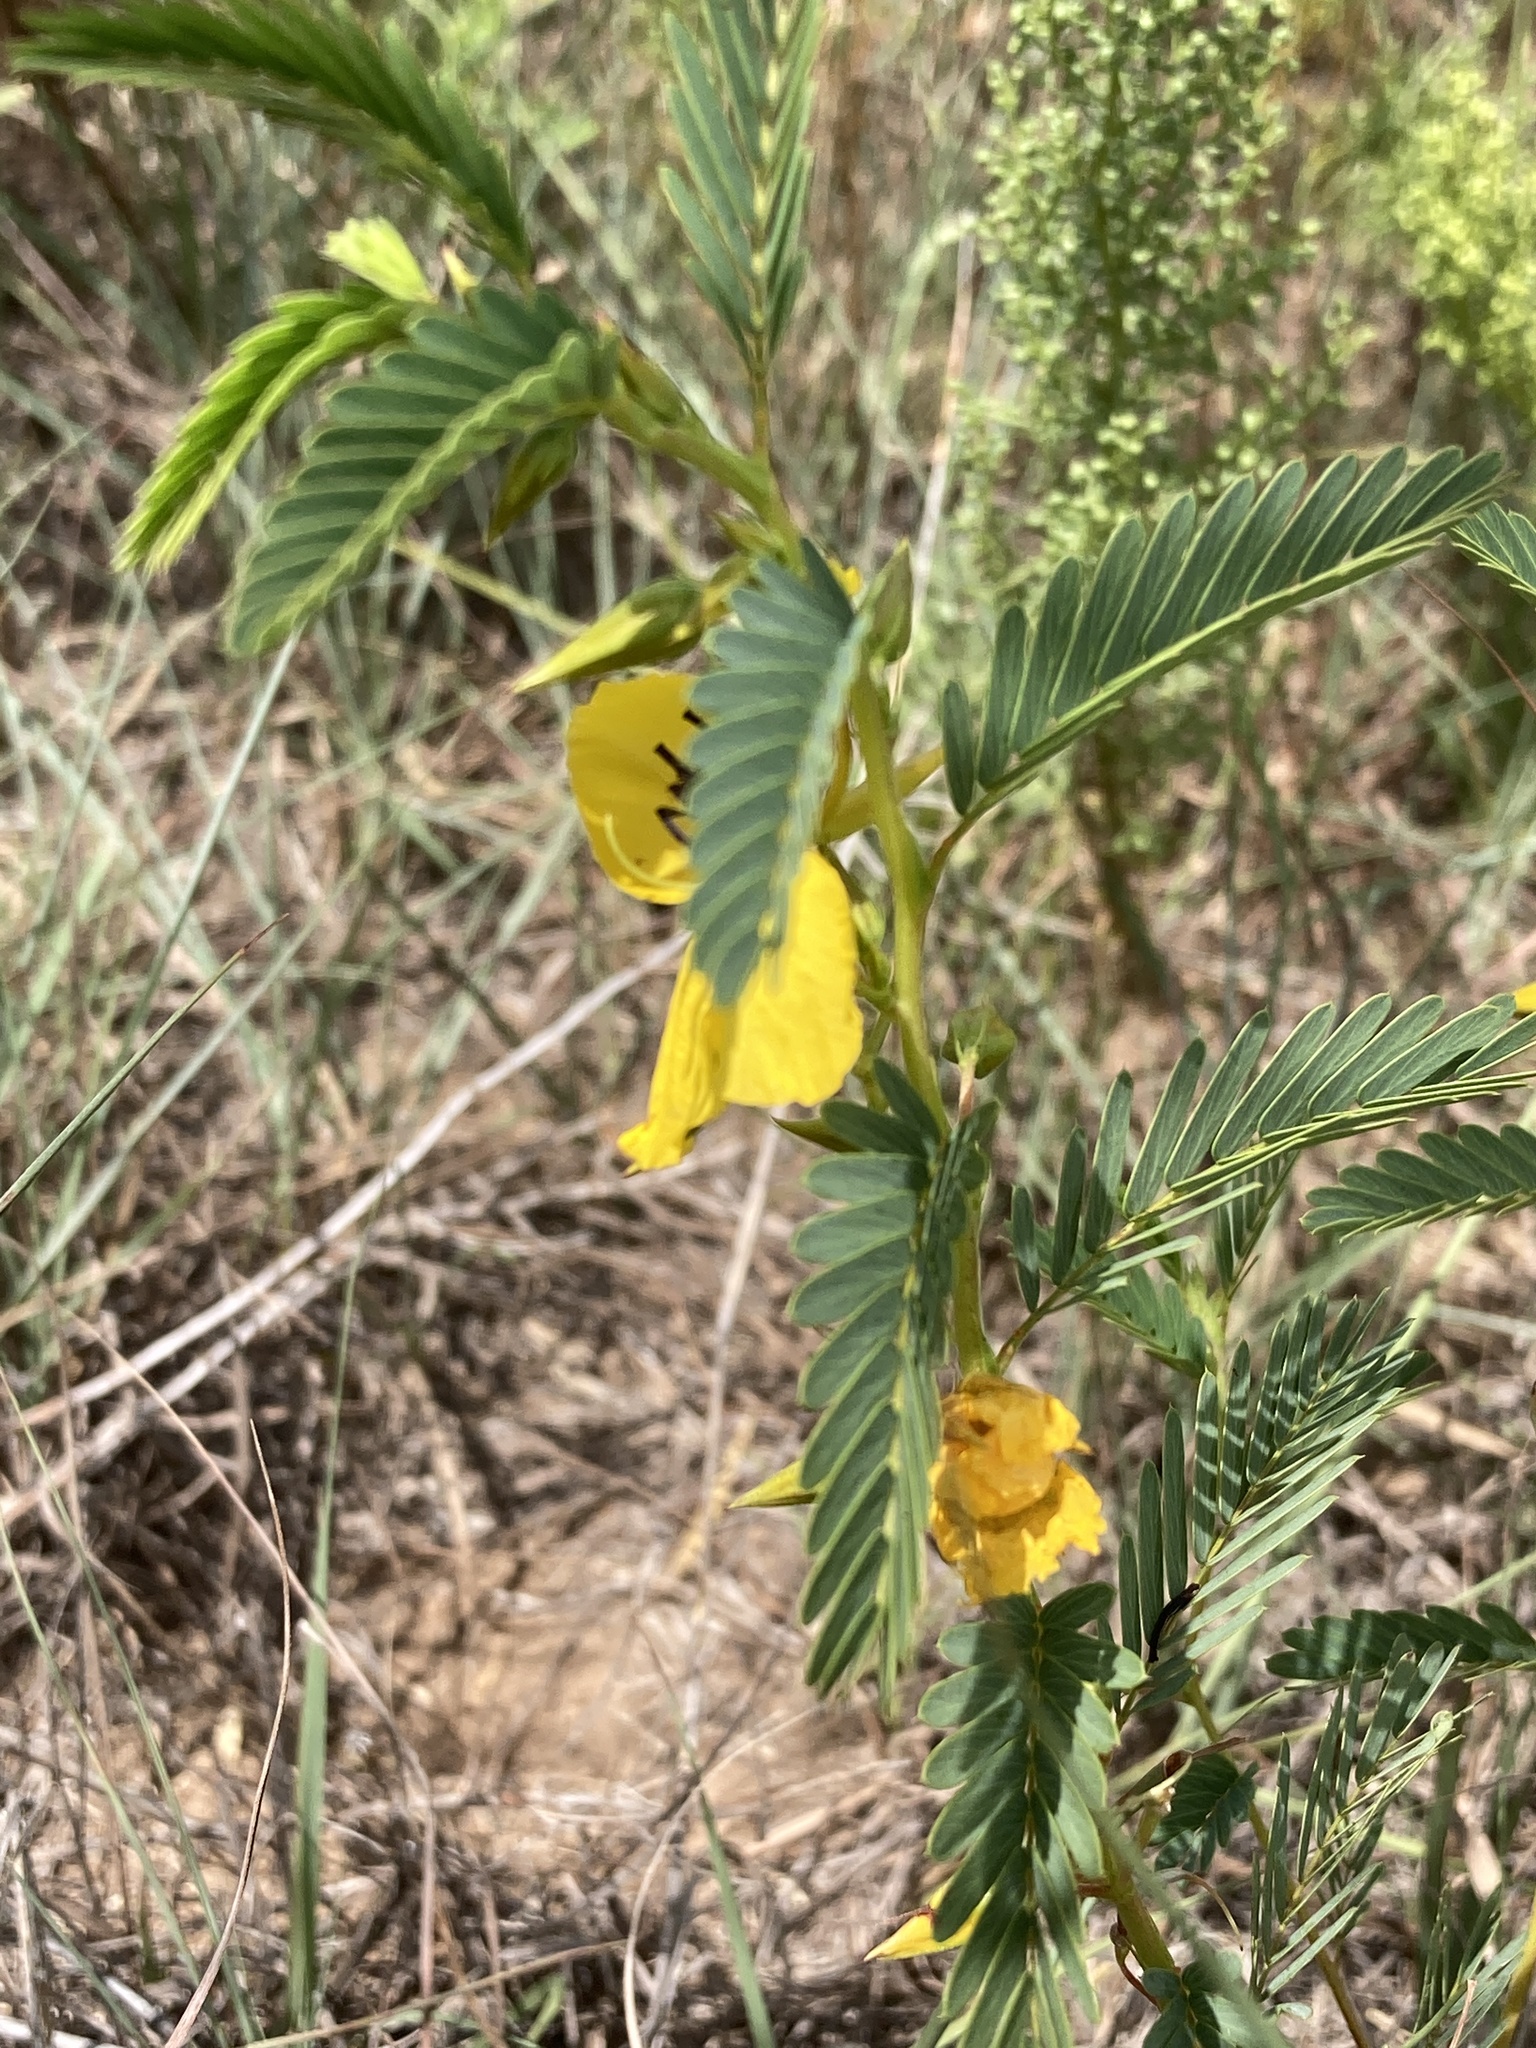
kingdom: Plantae
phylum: Tracheophyta
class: Magnoliopsida
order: Fabales
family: Fabaceae
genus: Chamaecrista
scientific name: Chamaecrista fasciculata
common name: Golden cassia
